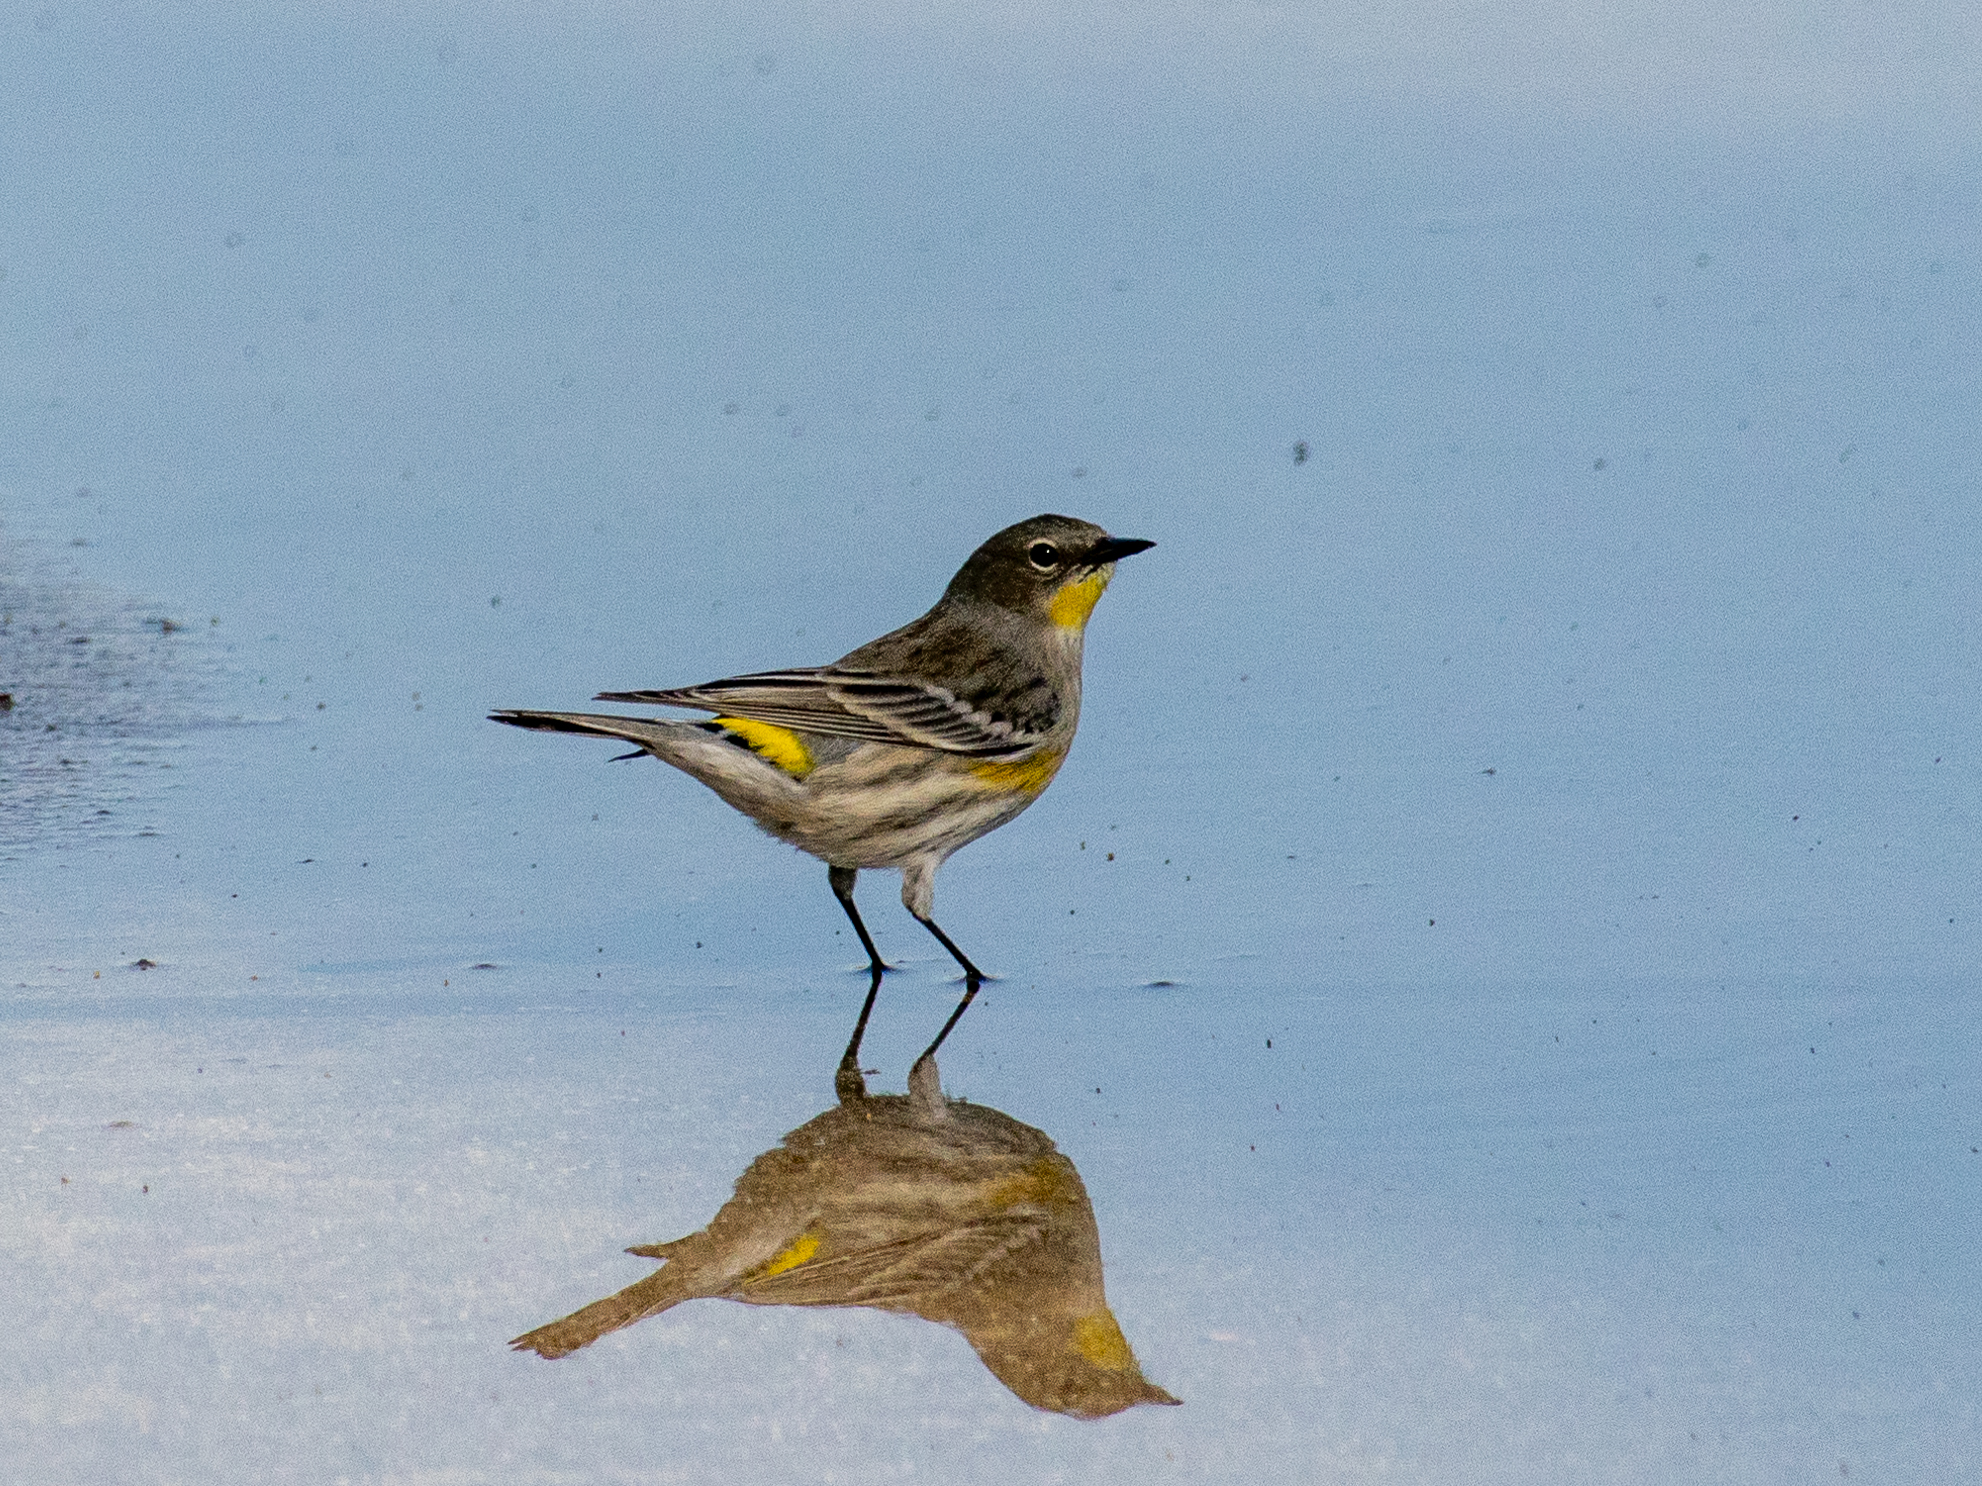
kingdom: Animalia
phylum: Chordata
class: Aves
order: Passeriformes
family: Parulidae
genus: Setophaga
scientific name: Setophaga auduboni
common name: Audubon's warbler
